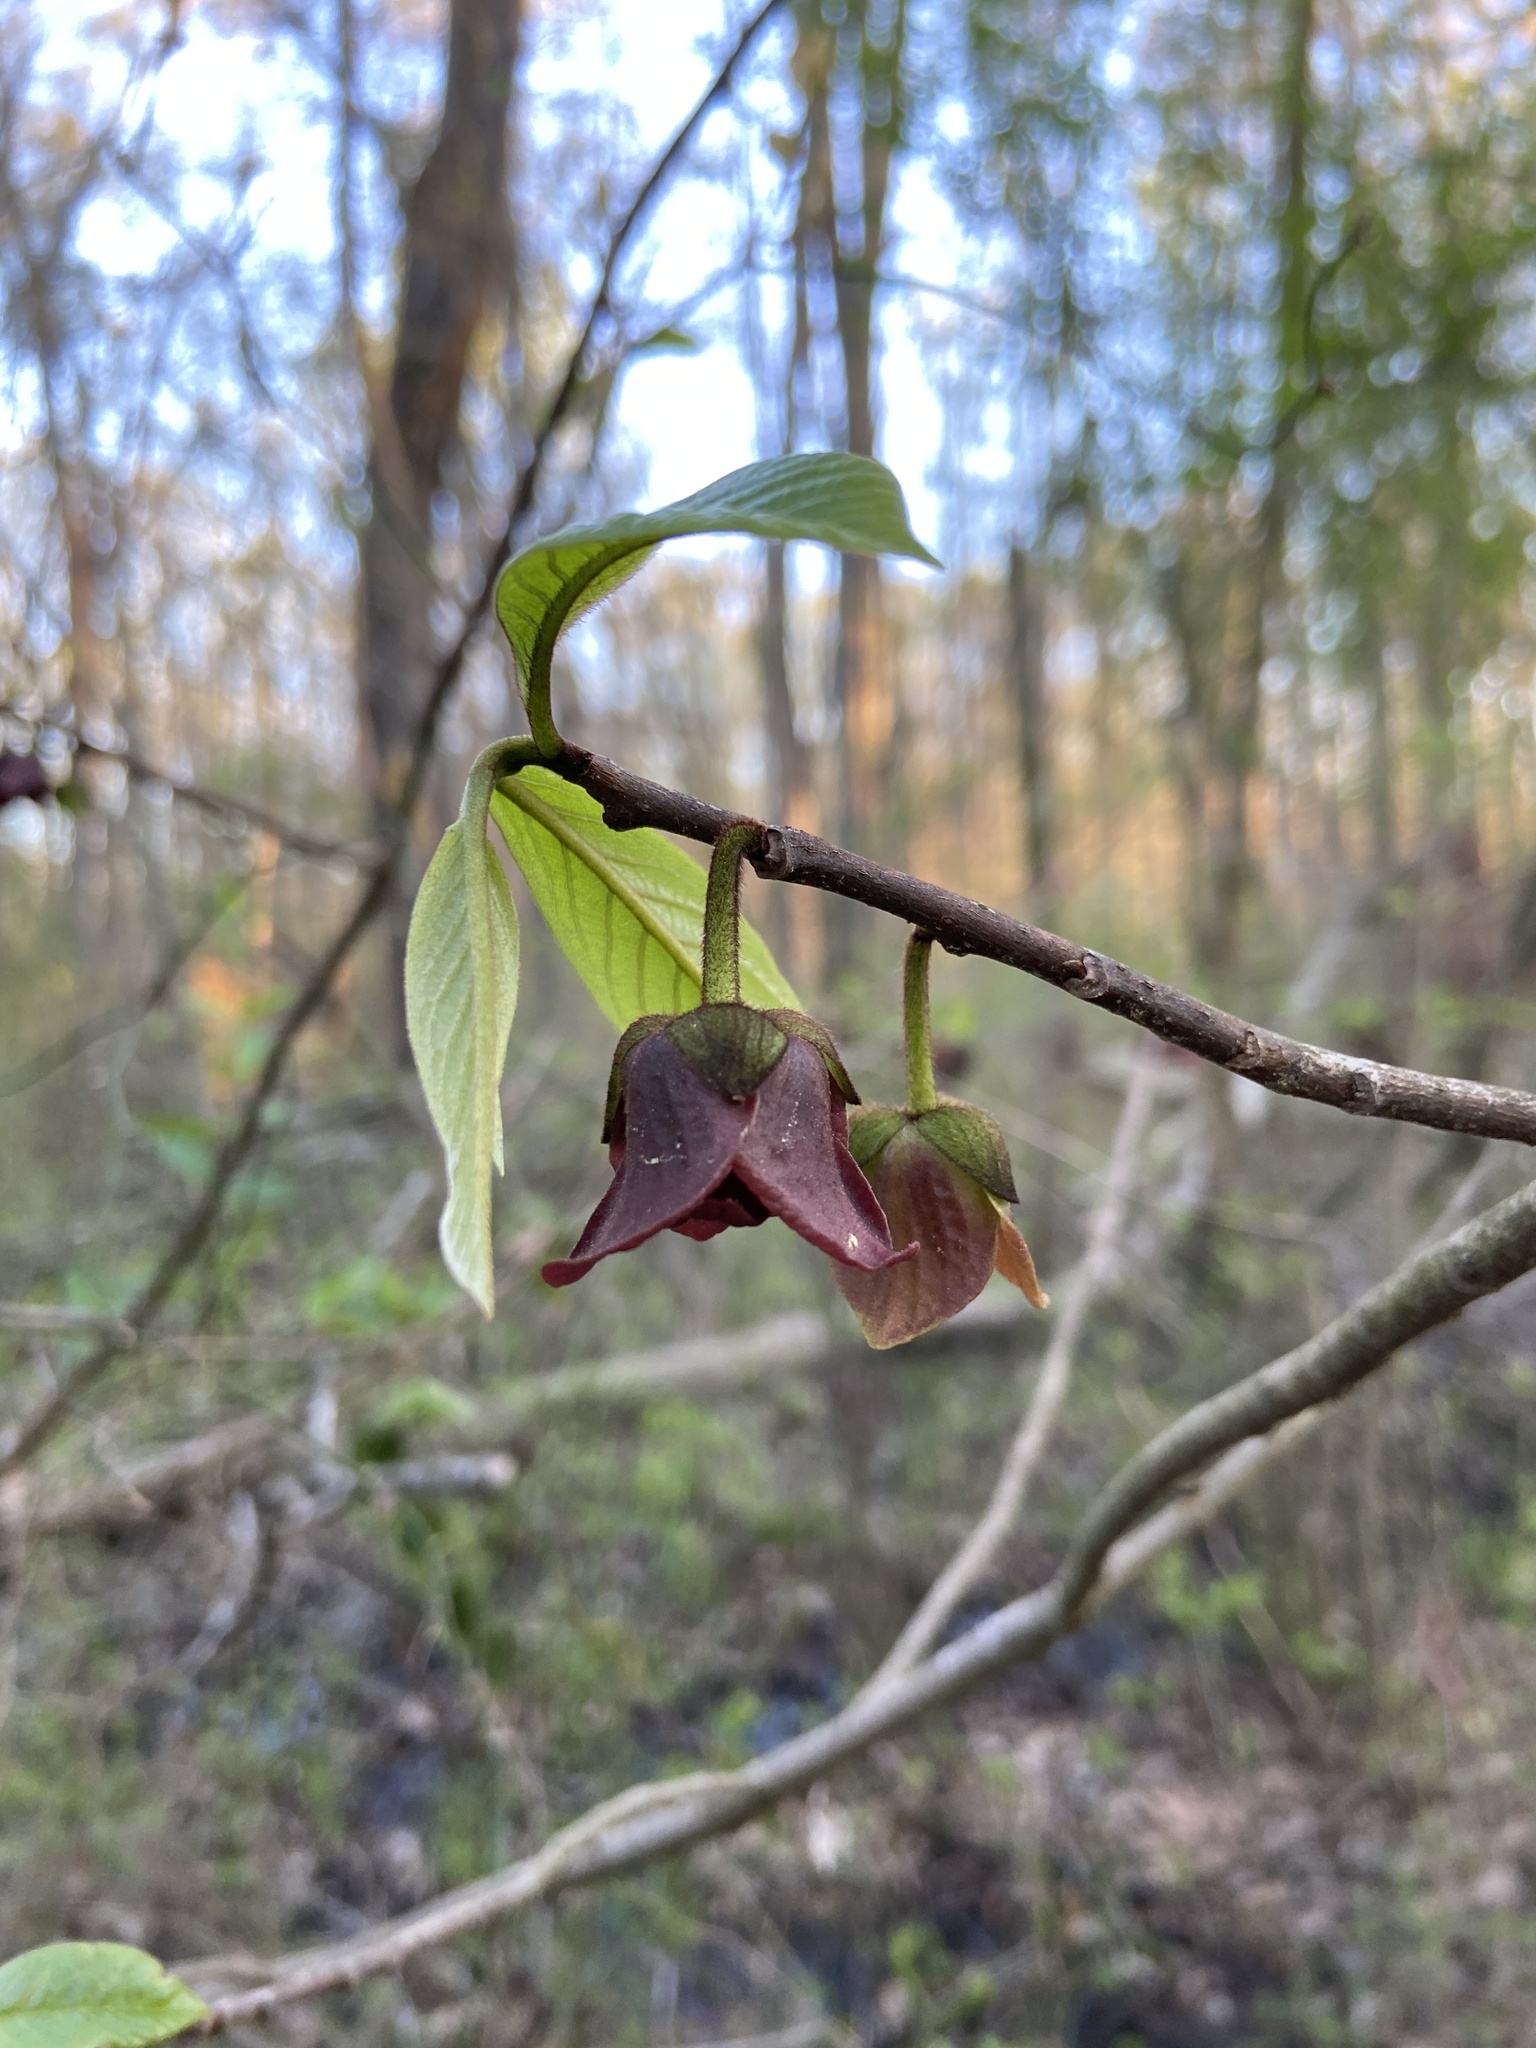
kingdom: Plantae
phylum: Tracheophyta
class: Magnoliopsida
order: Magnoliales
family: Annonaceae
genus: Asimina
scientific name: Asimina triloba
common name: Dog-banana
